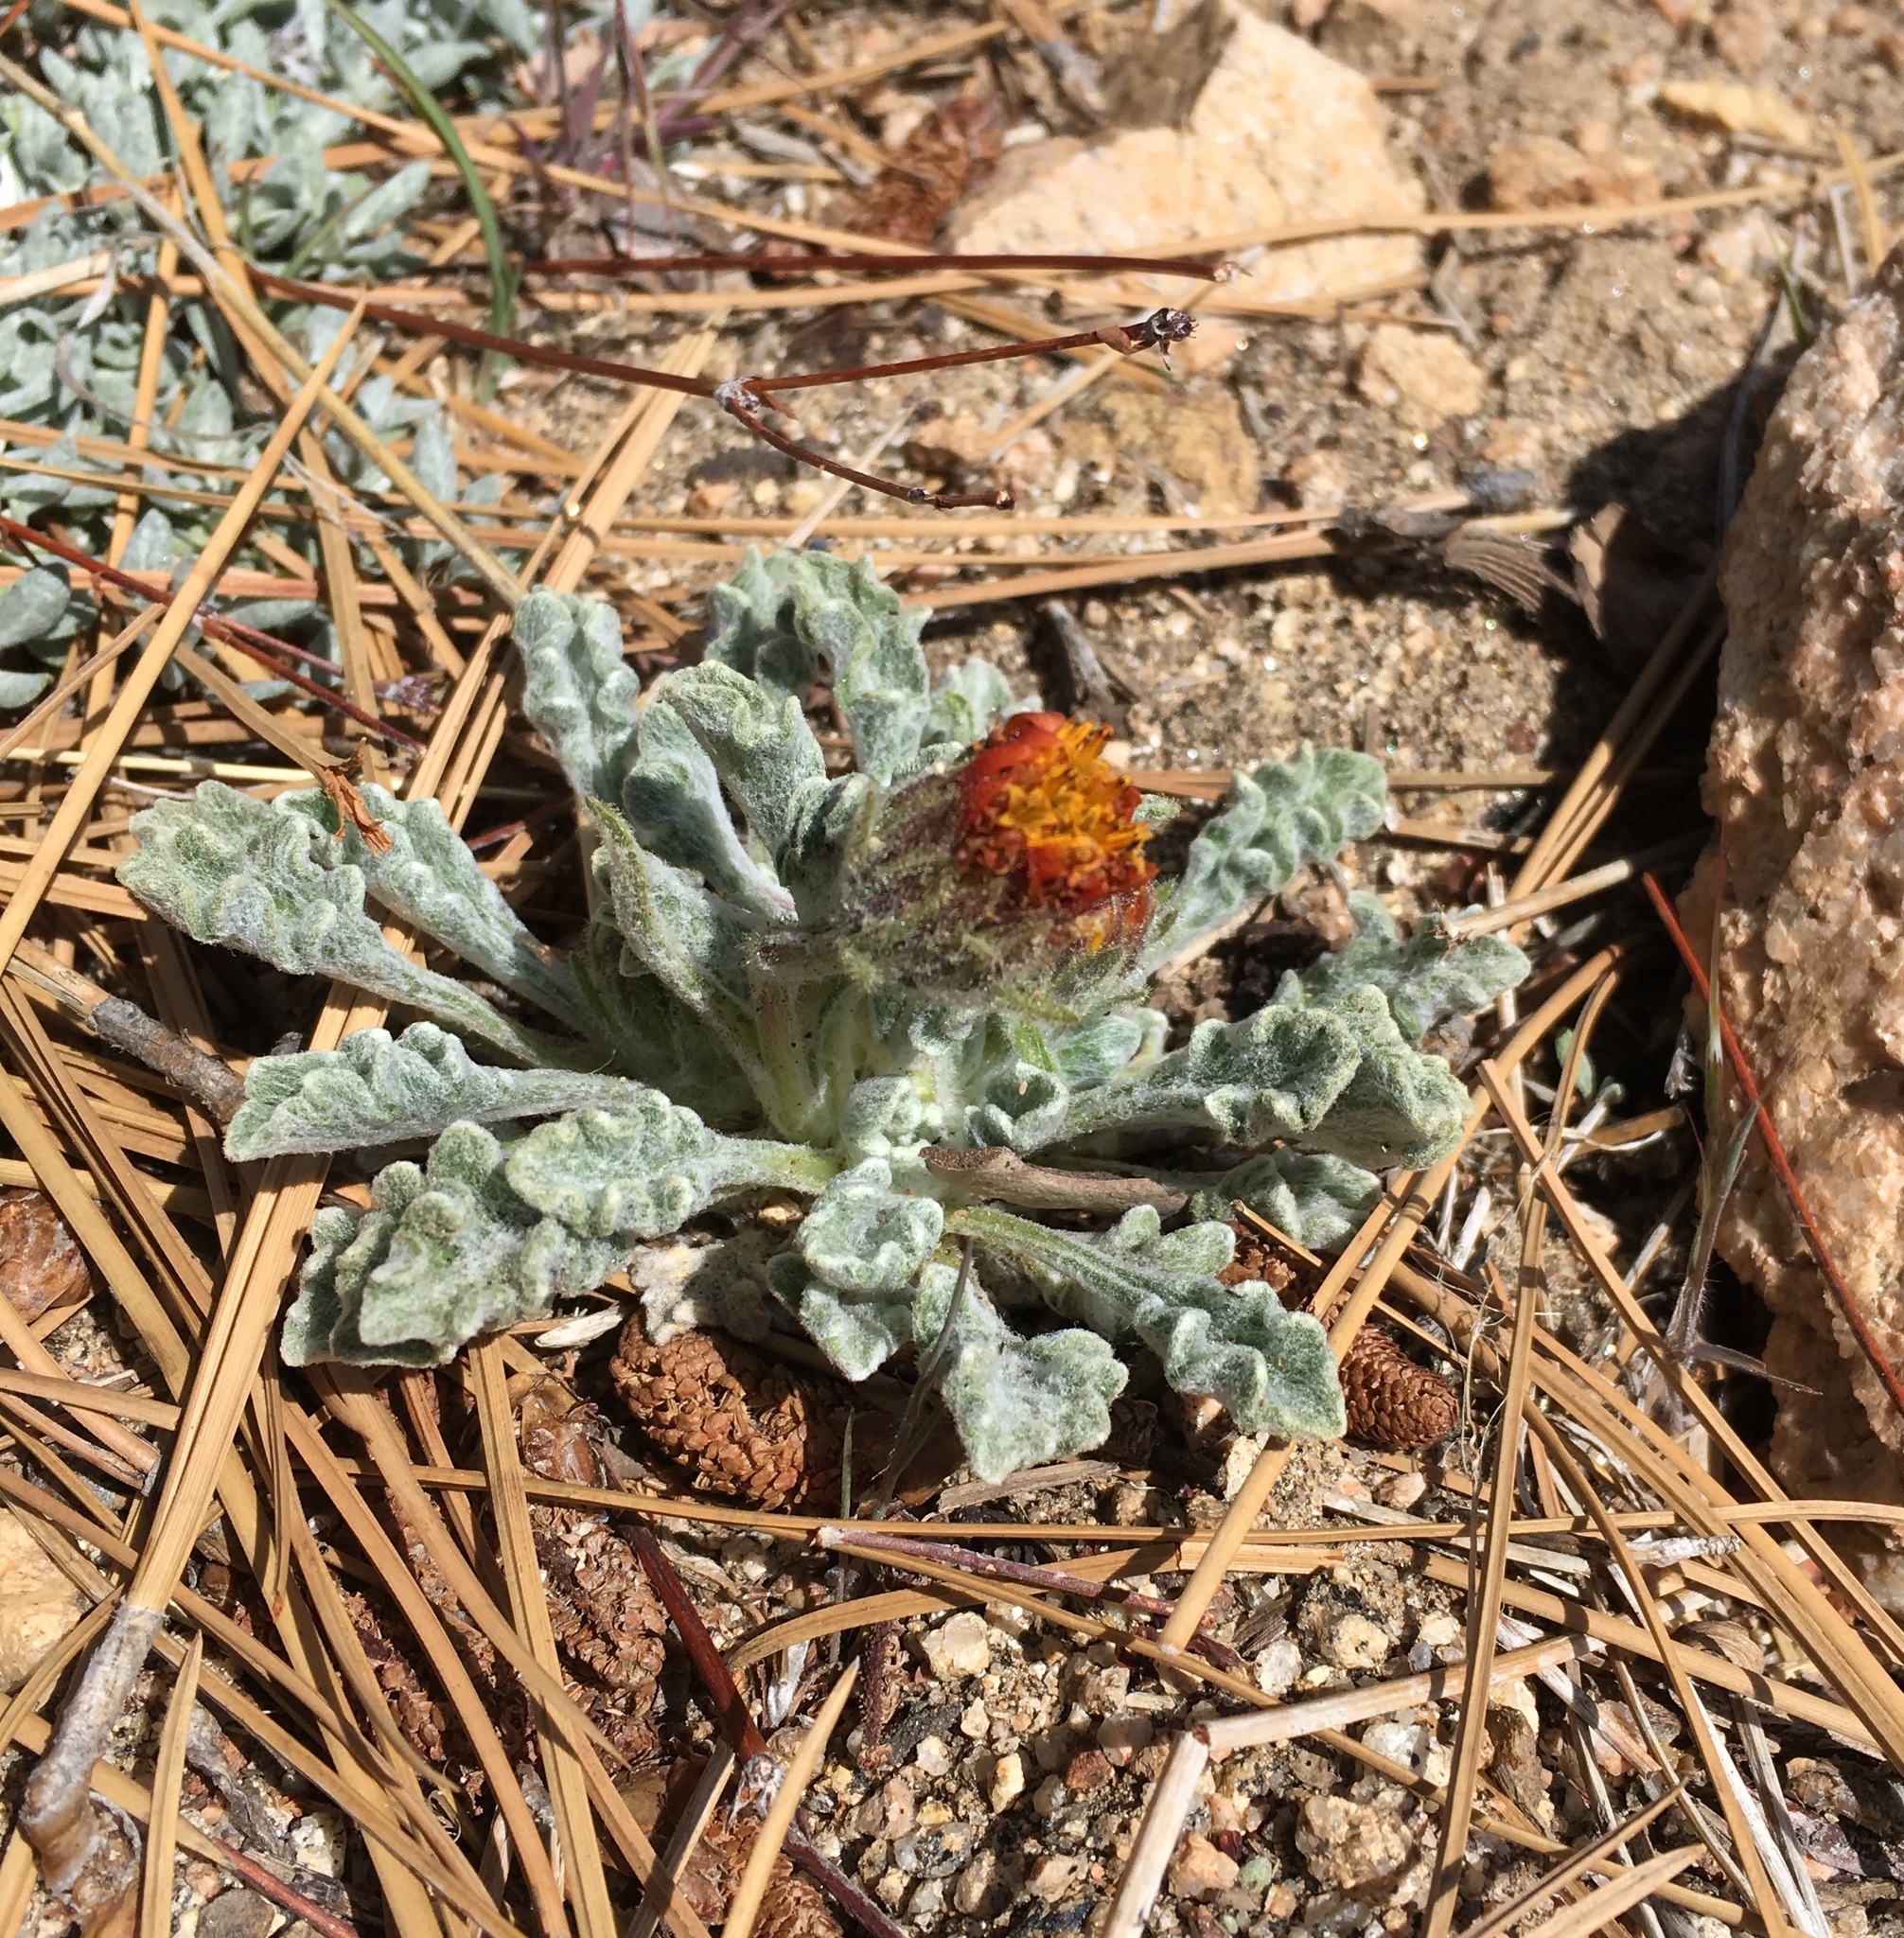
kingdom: Plantae
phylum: Tracheophyta
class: Magnoliopsida
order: Asterales
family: Asteraceae
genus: Hulsea
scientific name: Hulsea vestita
